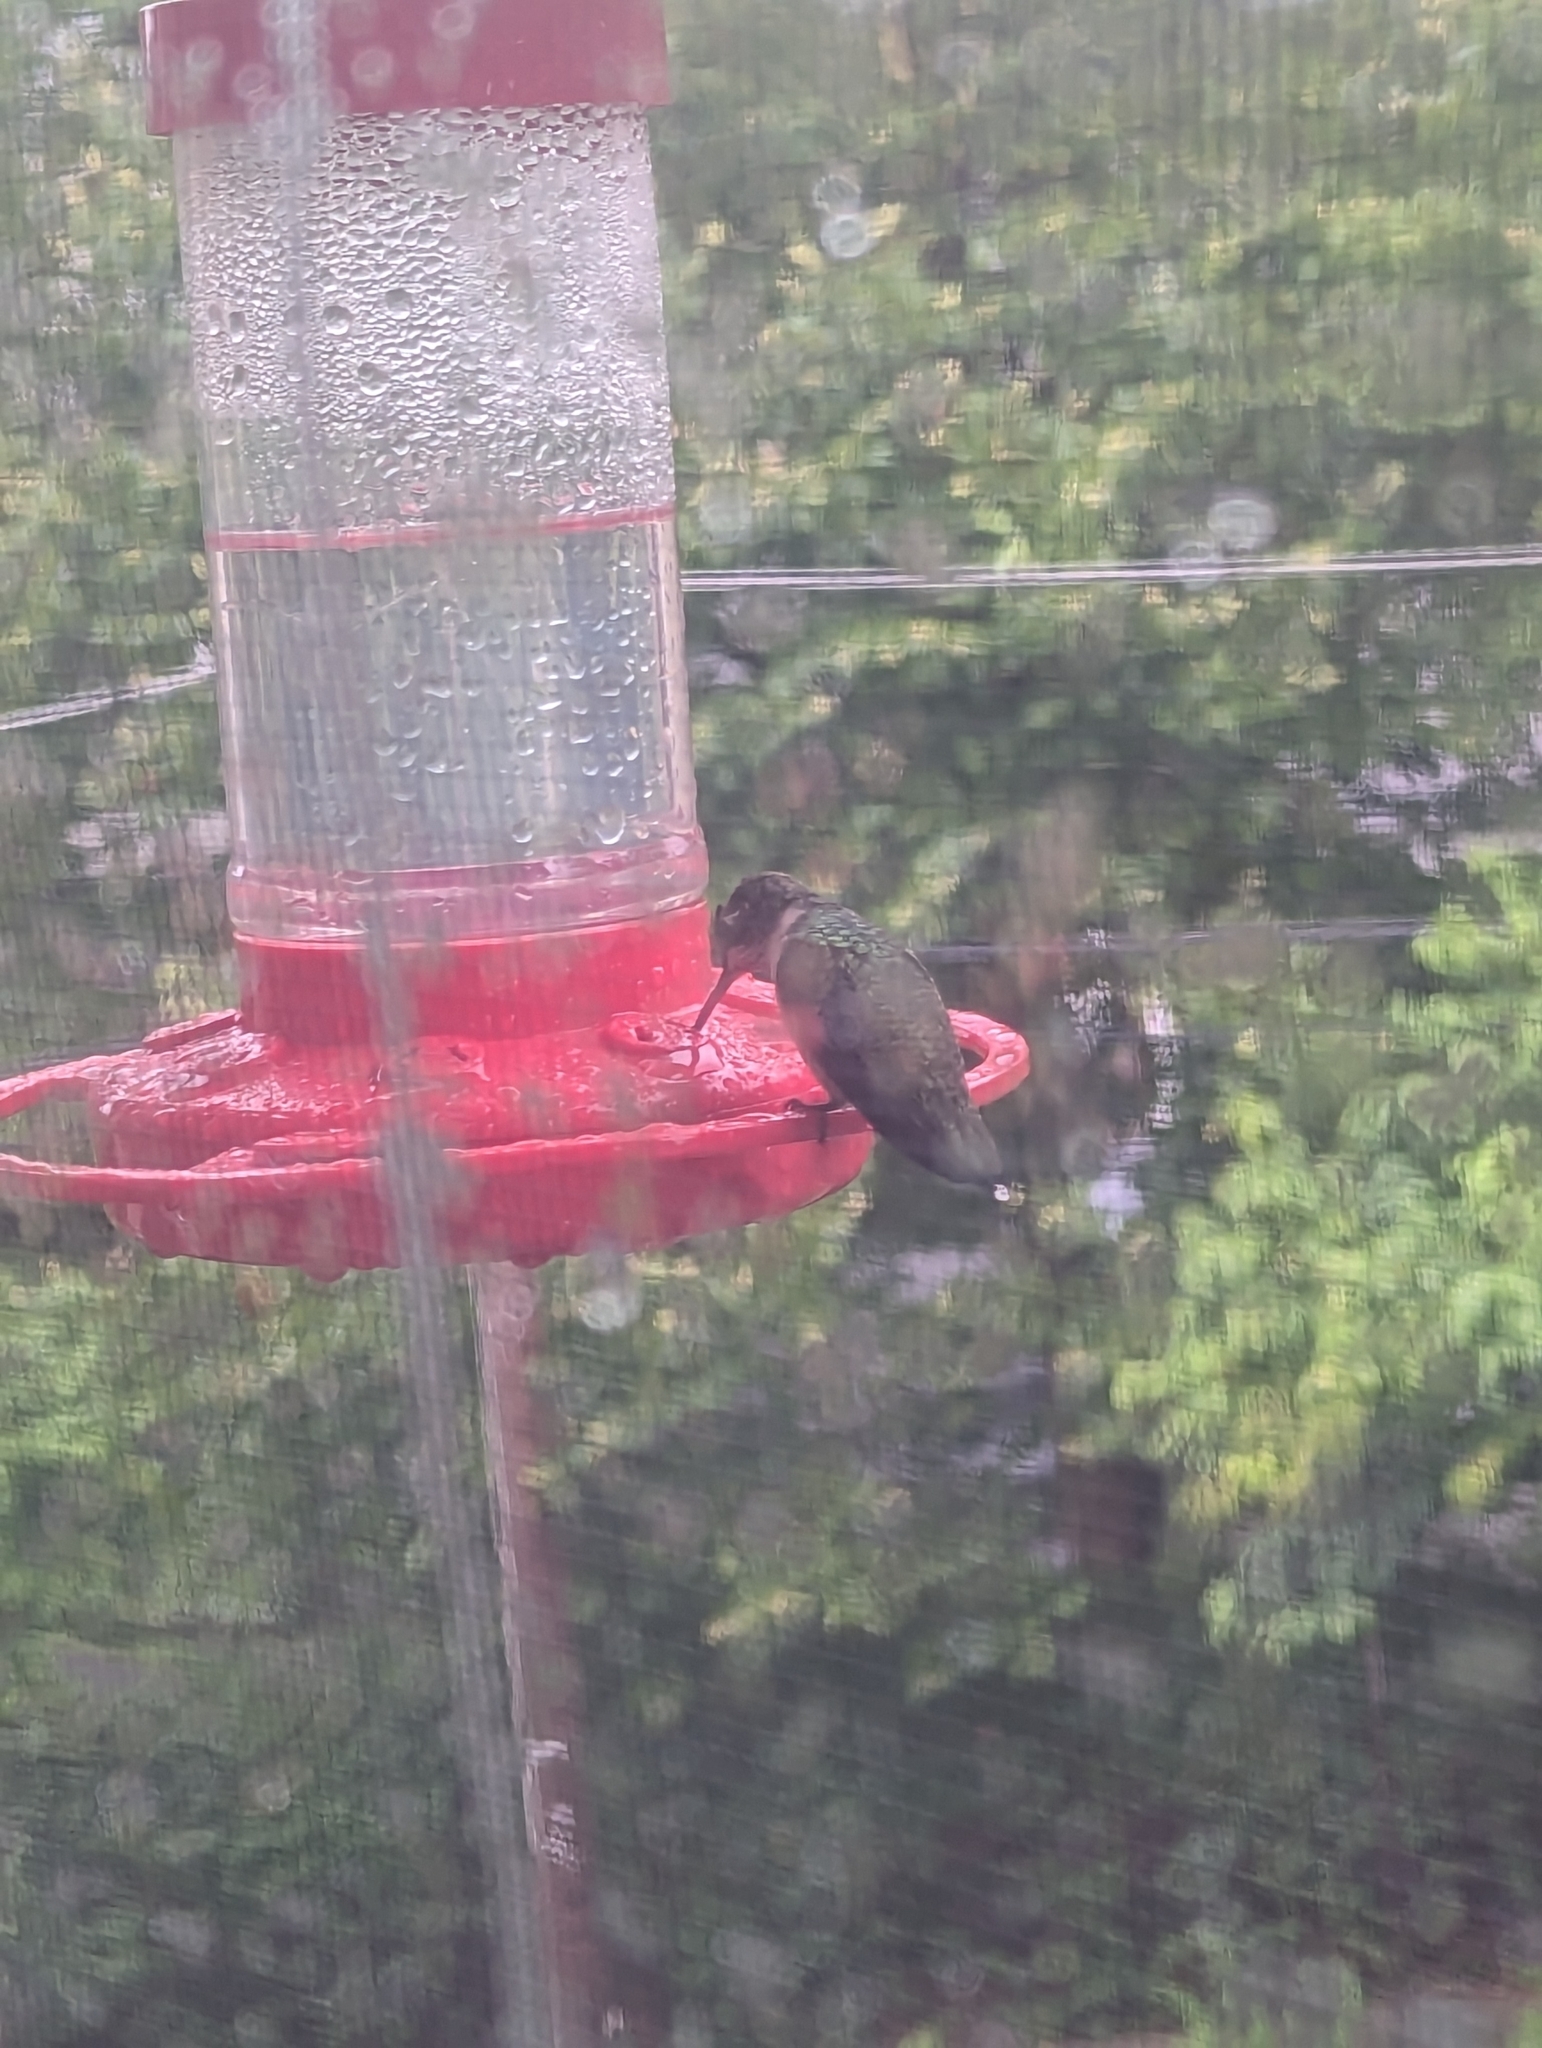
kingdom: Animalia
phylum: Chordata
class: Aves
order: Apodiformes
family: Trochilidae
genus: Archilochus
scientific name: Archilochus colubris
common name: Ruby-throated hummingbird
